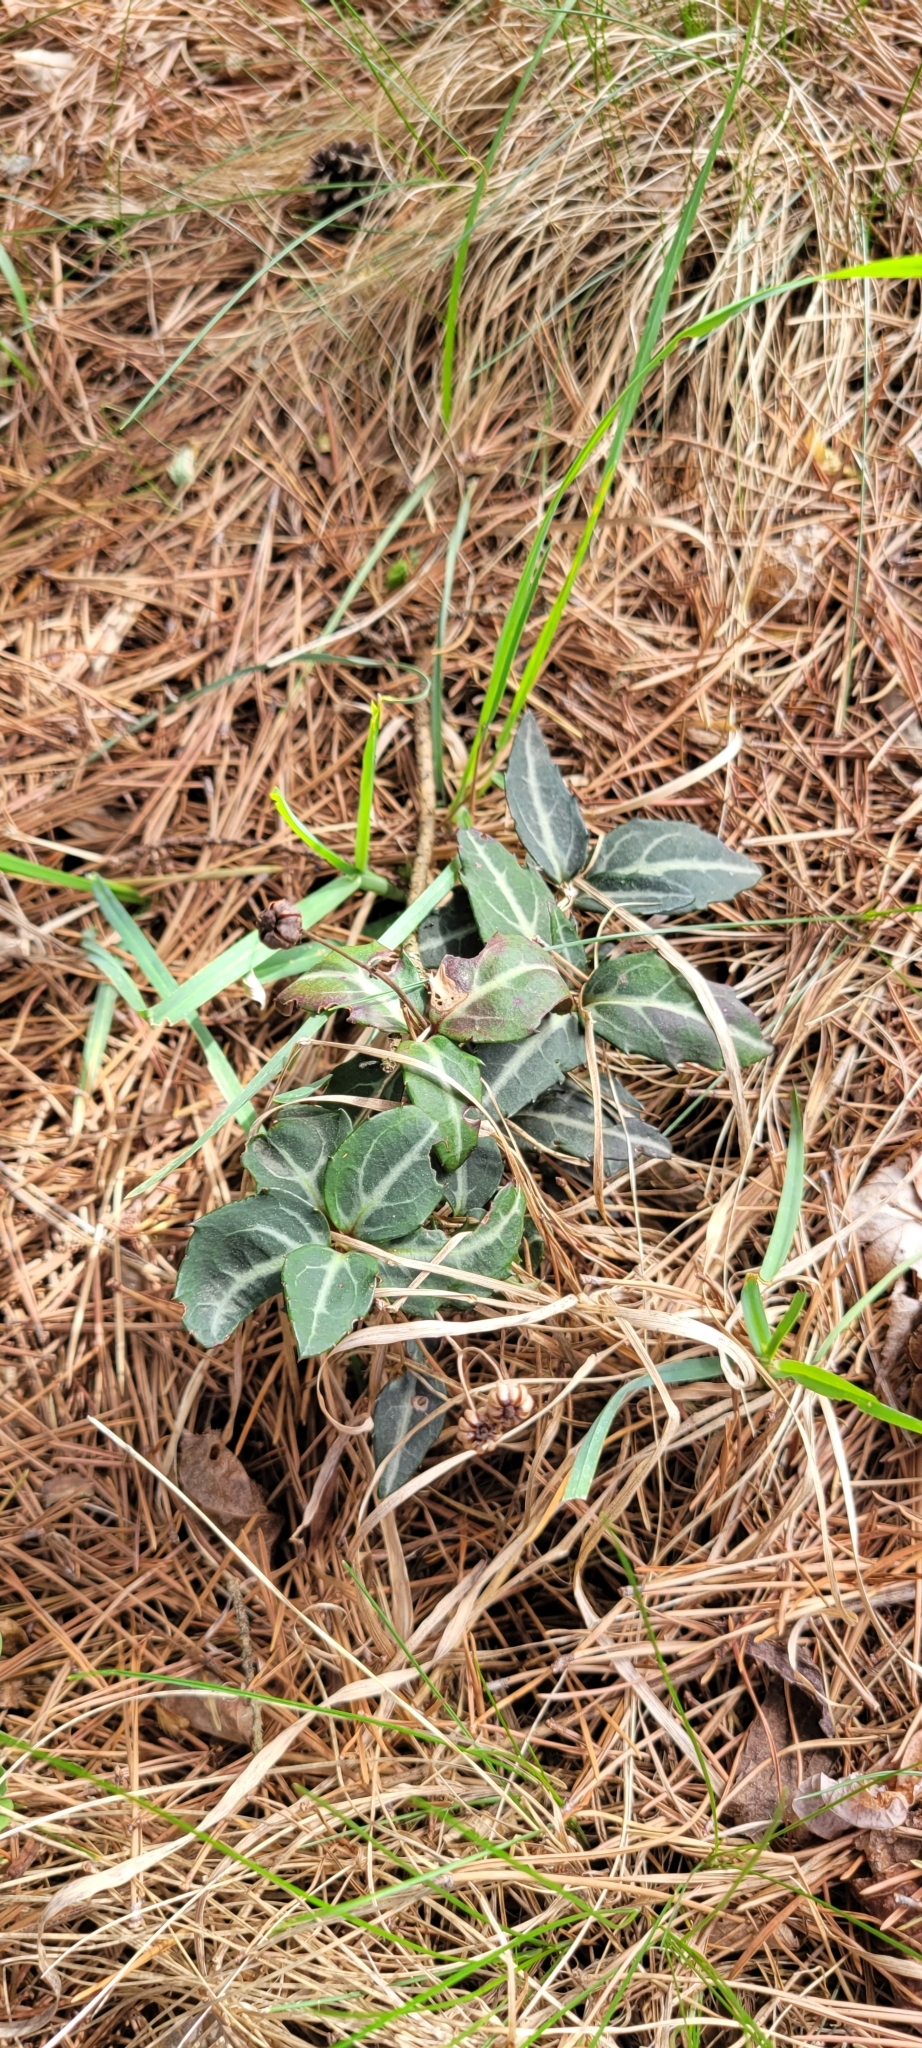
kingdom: Plantae
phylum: Tracheophyta
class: Magnoliopsida
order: Ericales
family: Ericaceae
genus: Chimaphila
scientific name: Chimaphila maculata
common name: Spotted pipsissewa
